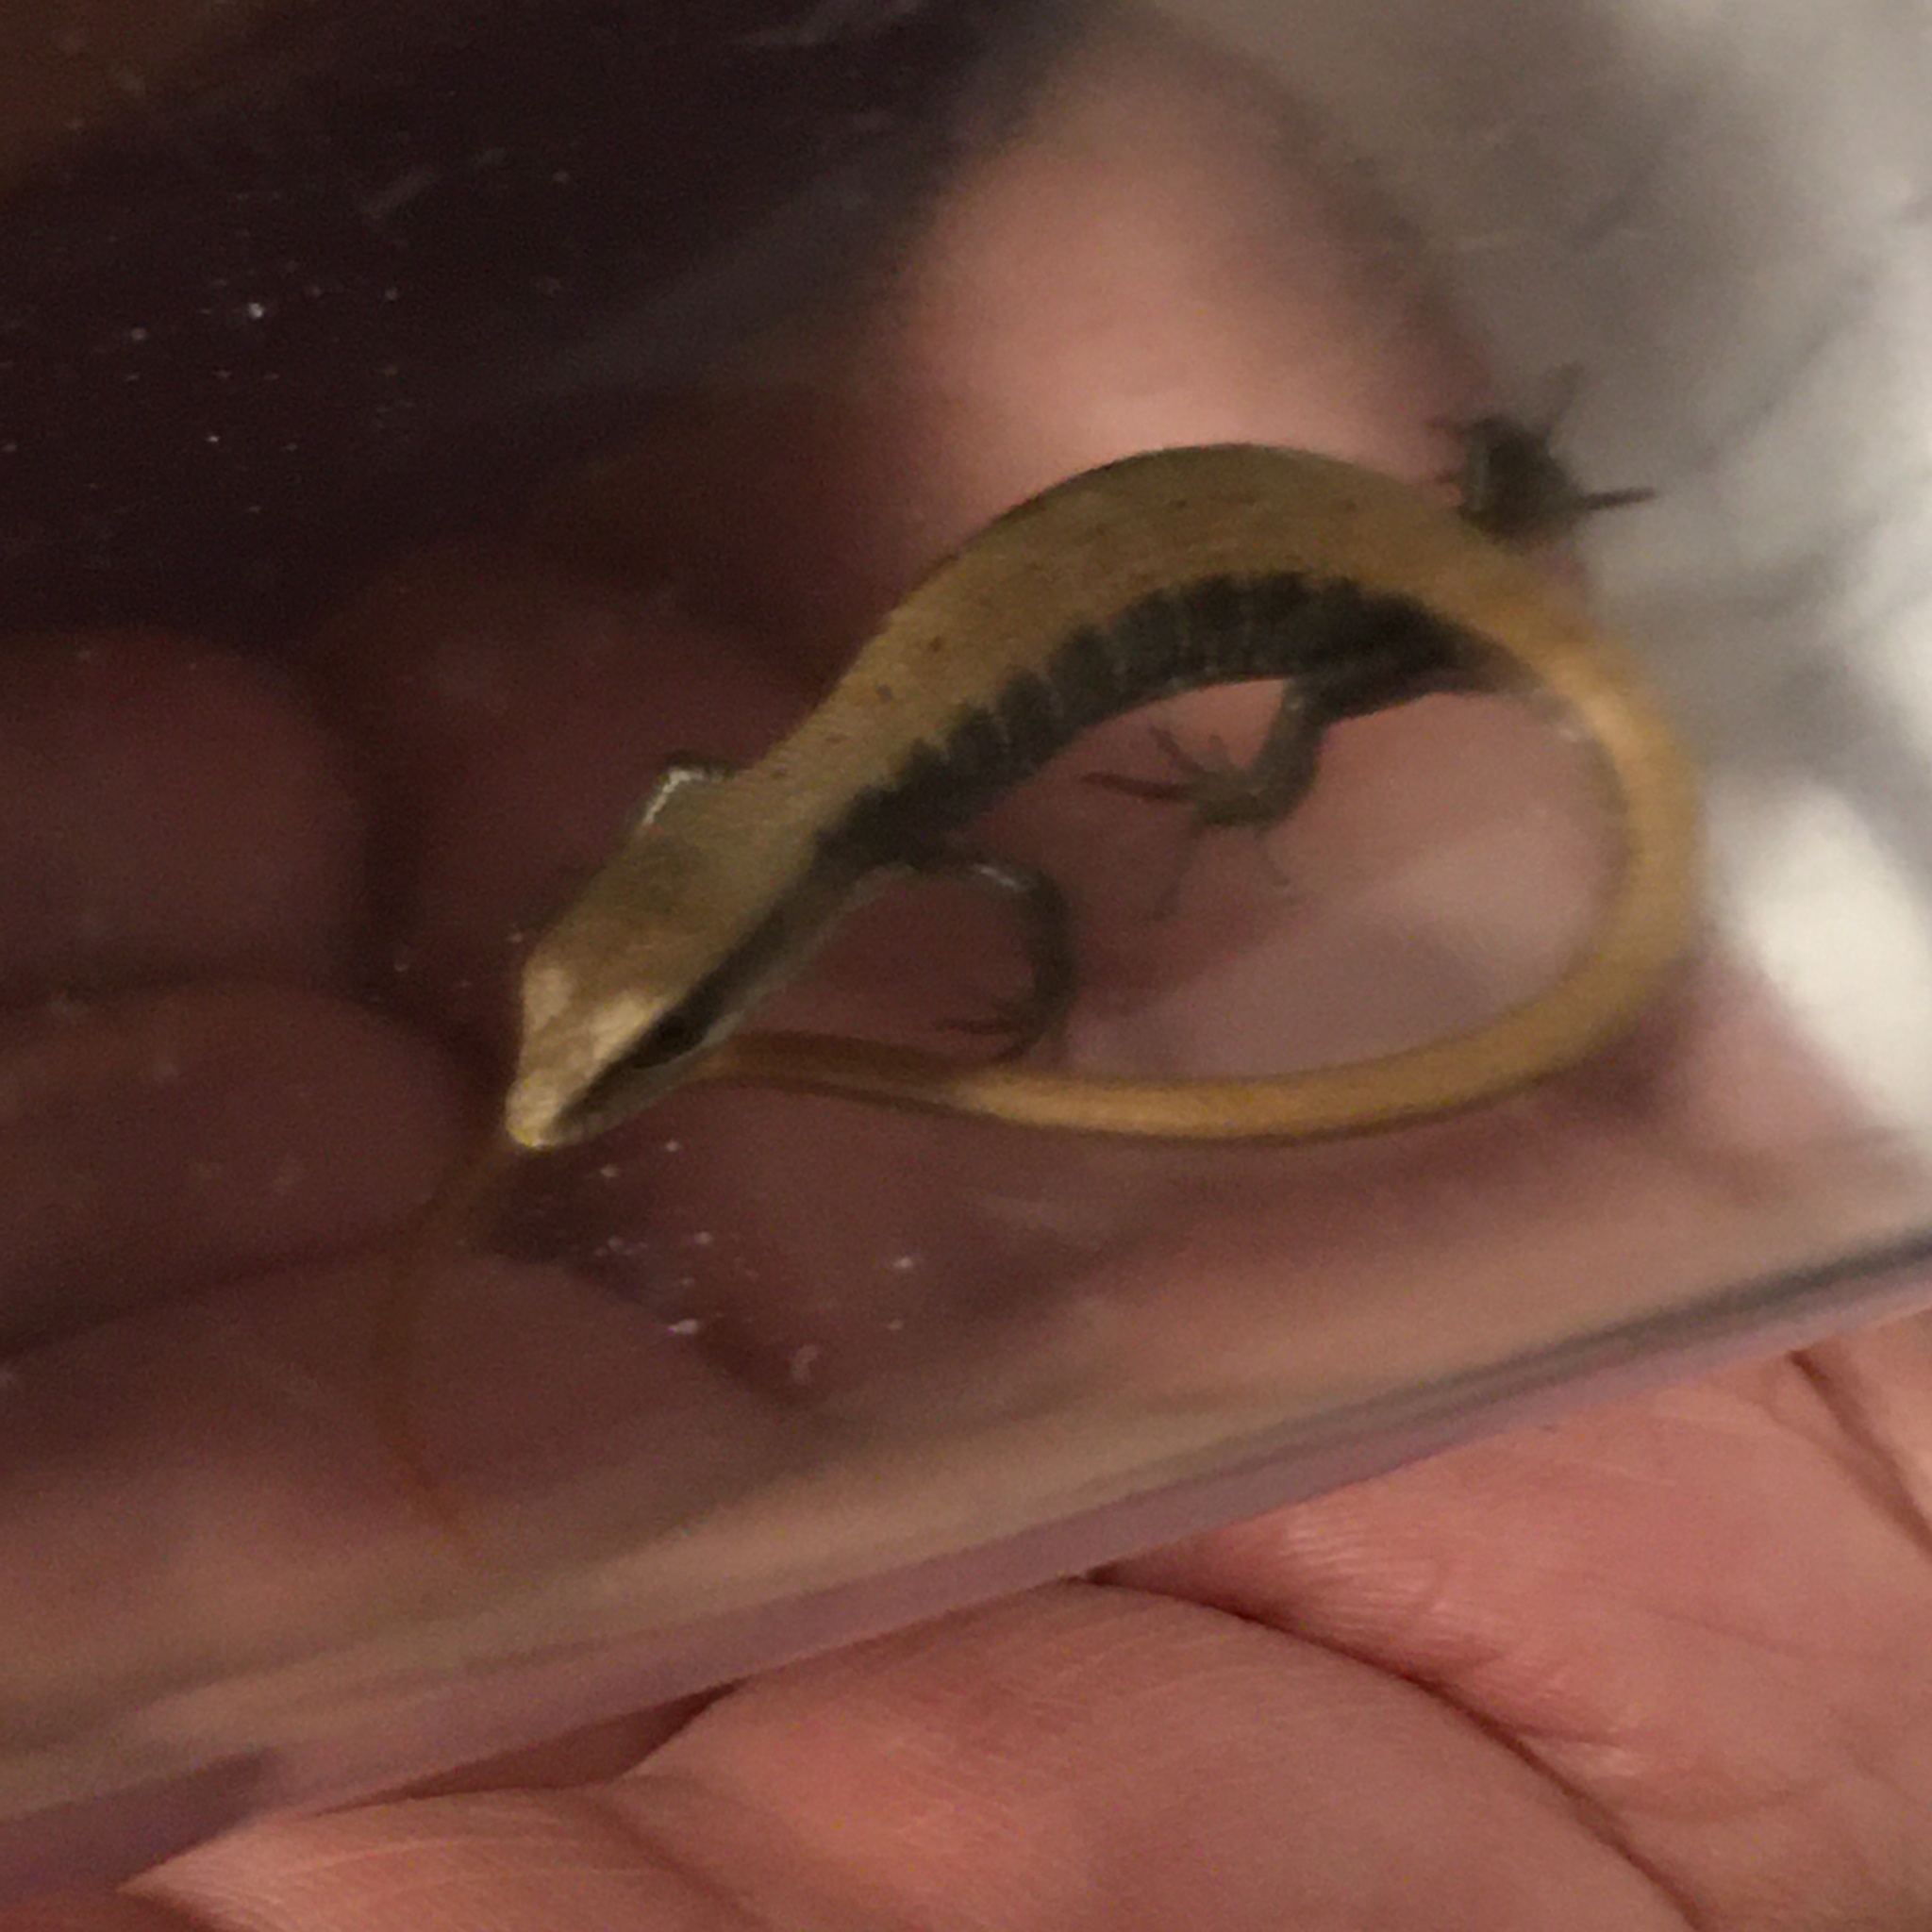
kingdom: Animalia
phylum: Chordata
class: Squamata
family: Anguidae
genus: Elgaria
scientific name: Elgaria
